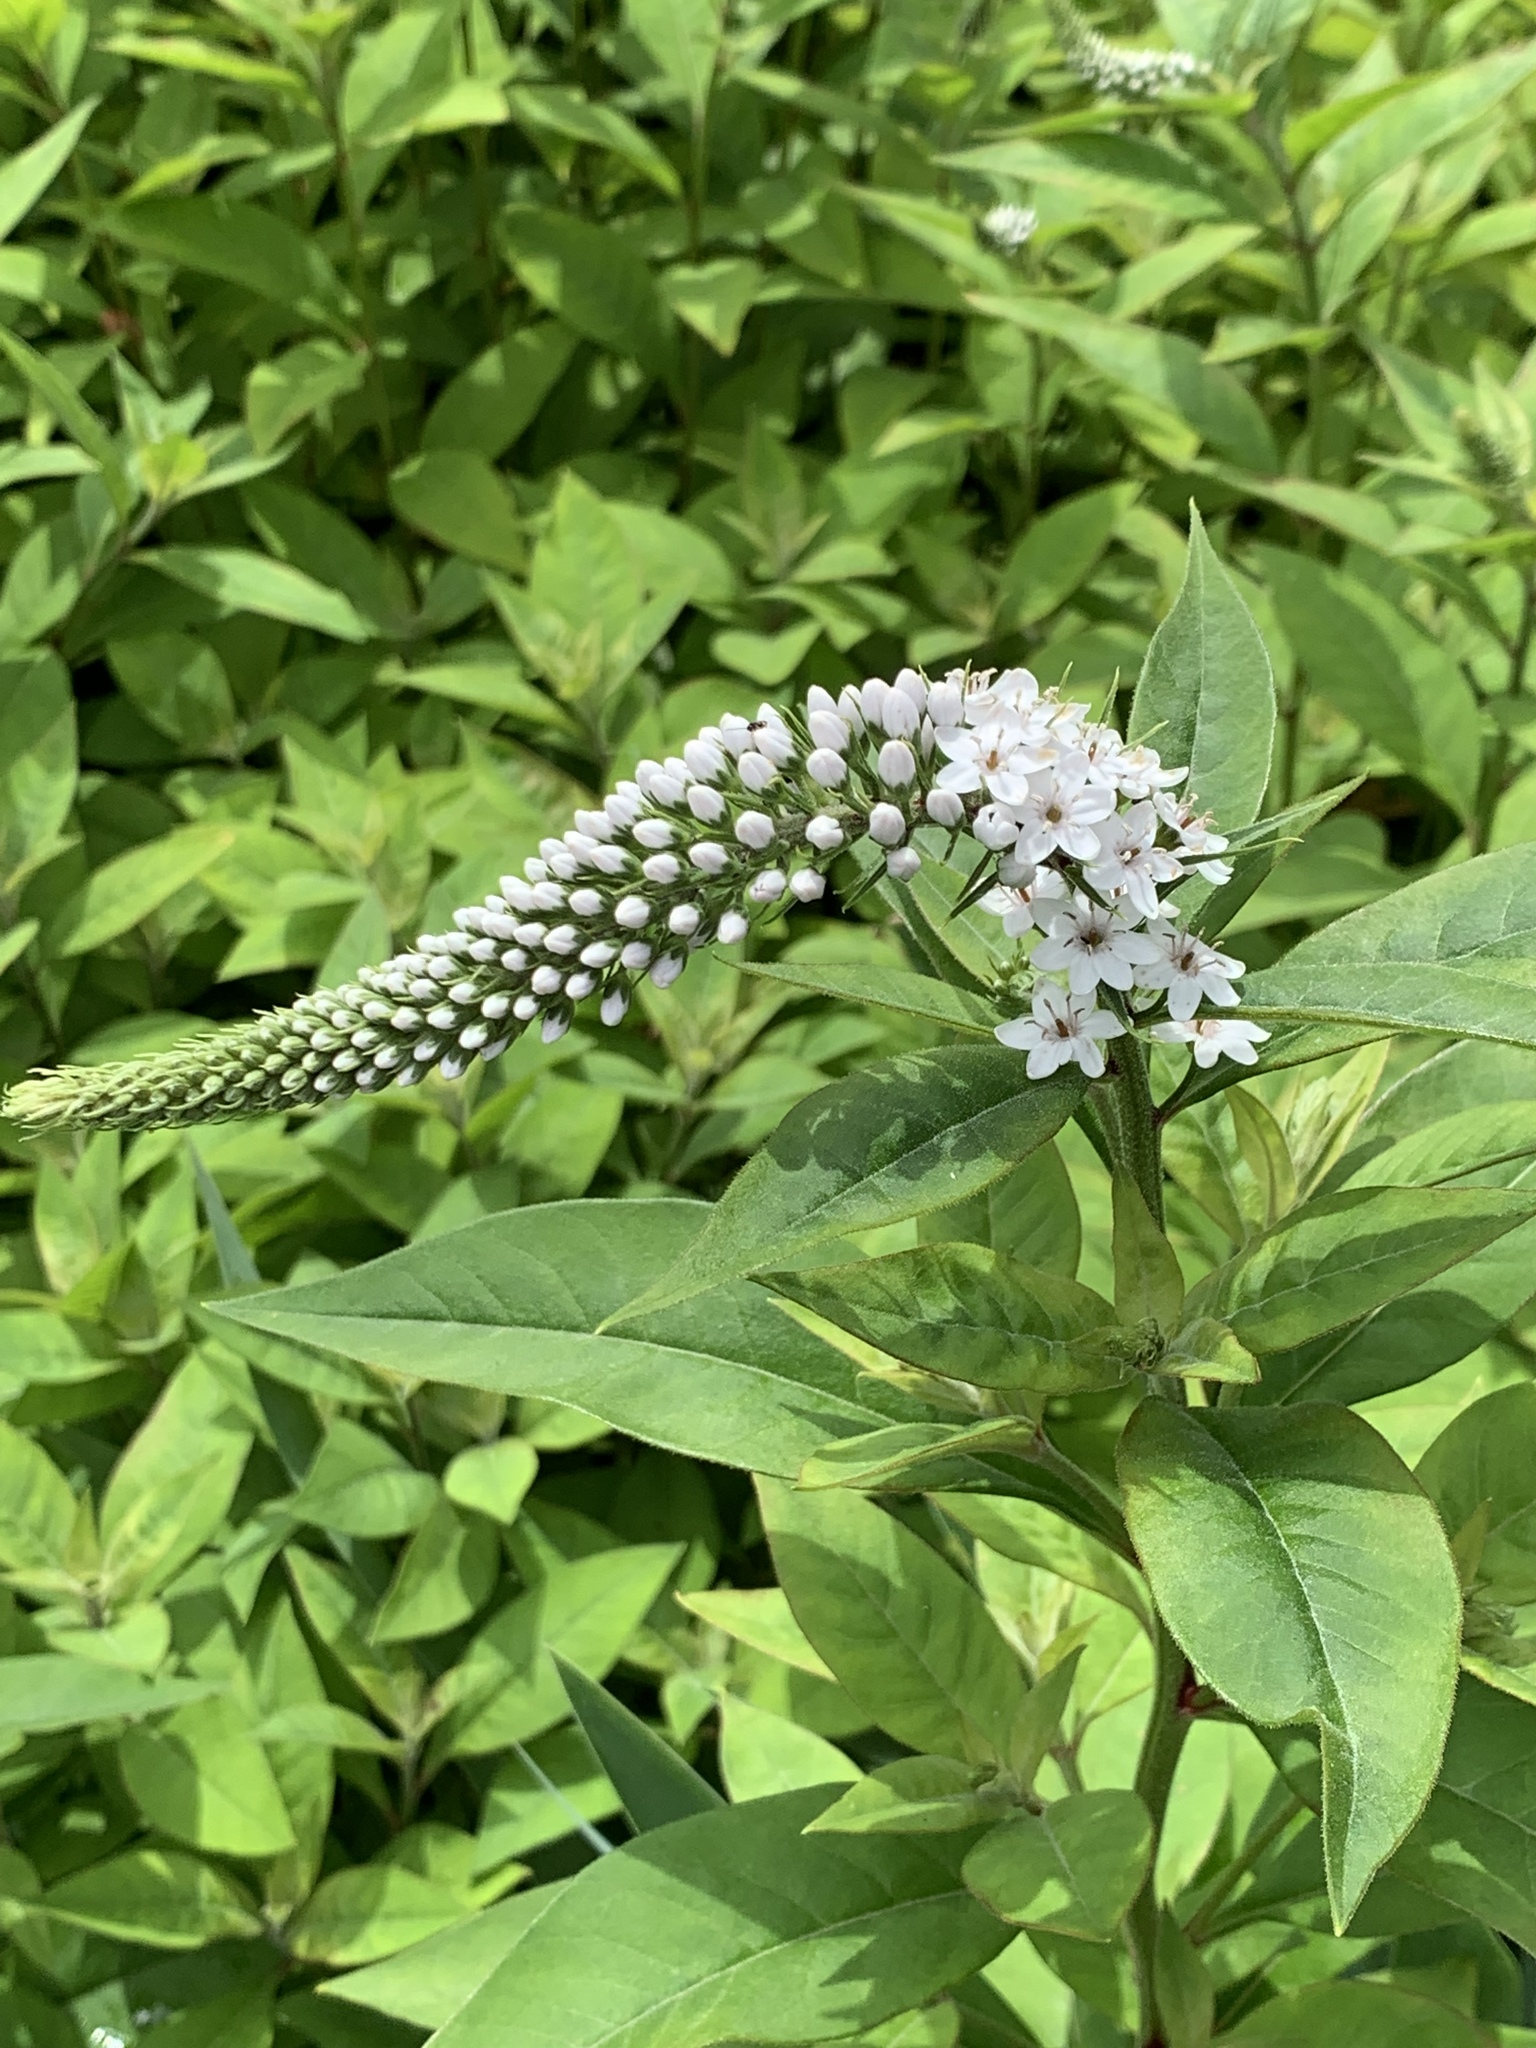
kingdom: Plantae
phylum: Tracheophyta
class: Magnoliopsida
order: Ericales
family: Primulaceae
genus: Lysimachia
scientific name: Lysimachia clethroides
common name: Gooseneck loosestrife
